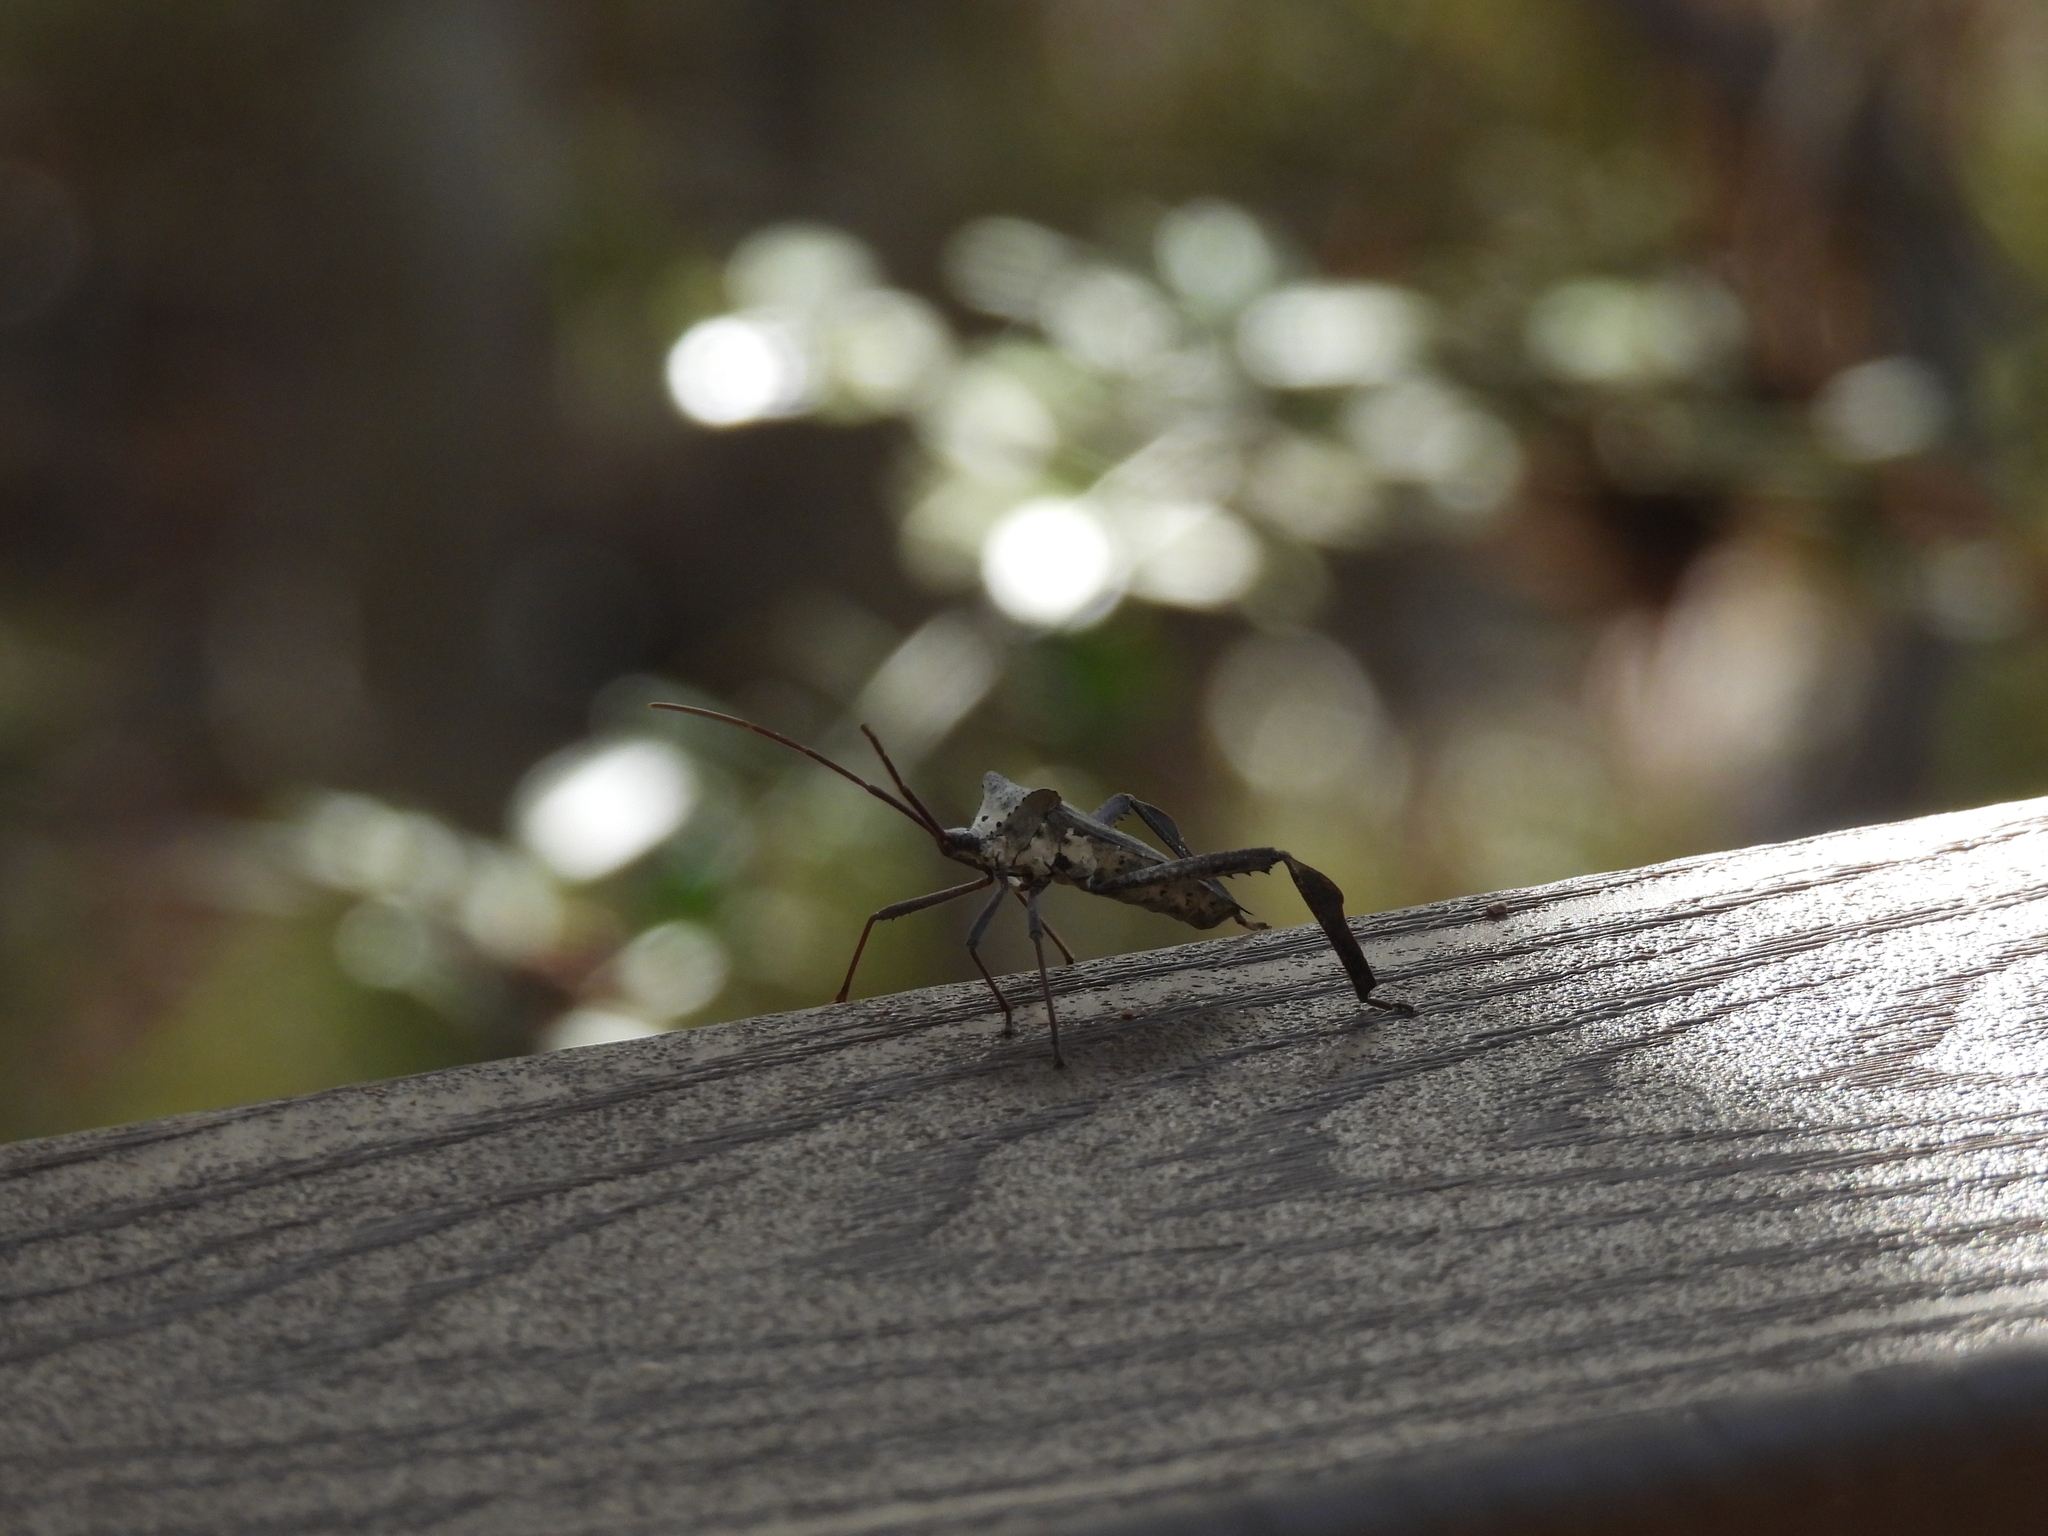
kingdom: Animalia
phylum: Arthropoda
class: Insecta
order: Hemiptera
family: Coreidae
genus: Acanthocephala
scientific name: Acanthocephala declivis
